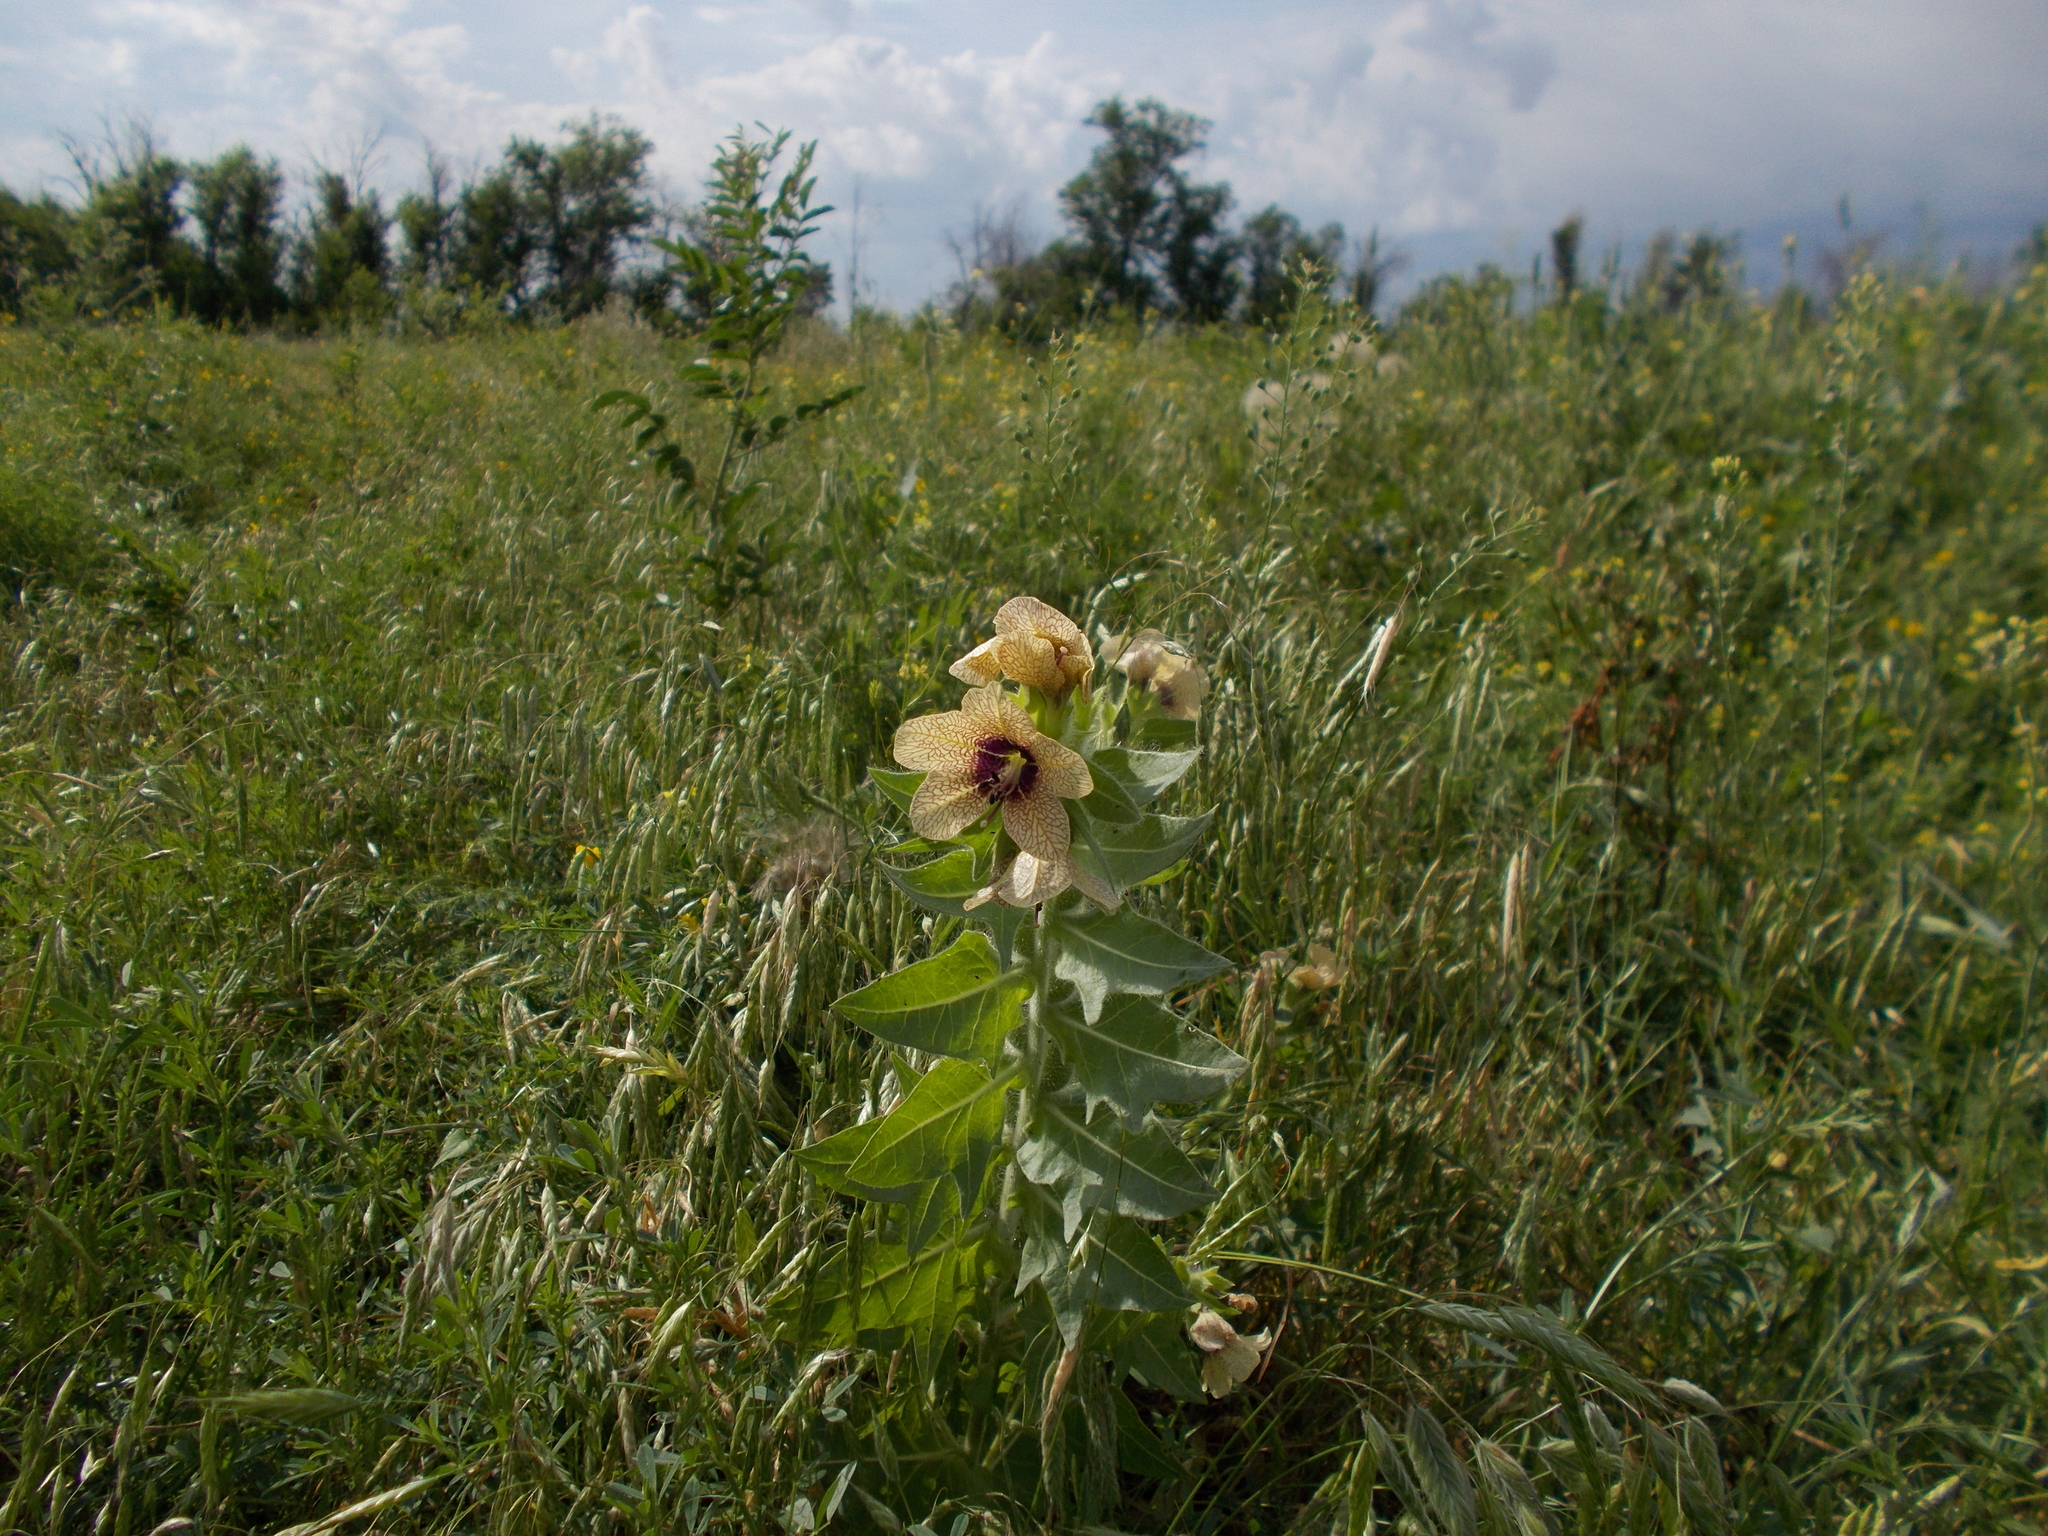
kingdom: Plantae
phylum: Tracheophyta
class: Magnoliopsida
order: Solanales
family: Solanaceae
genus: Hyoscyamus
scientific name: Hyoscyamus niger
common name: Henbane
